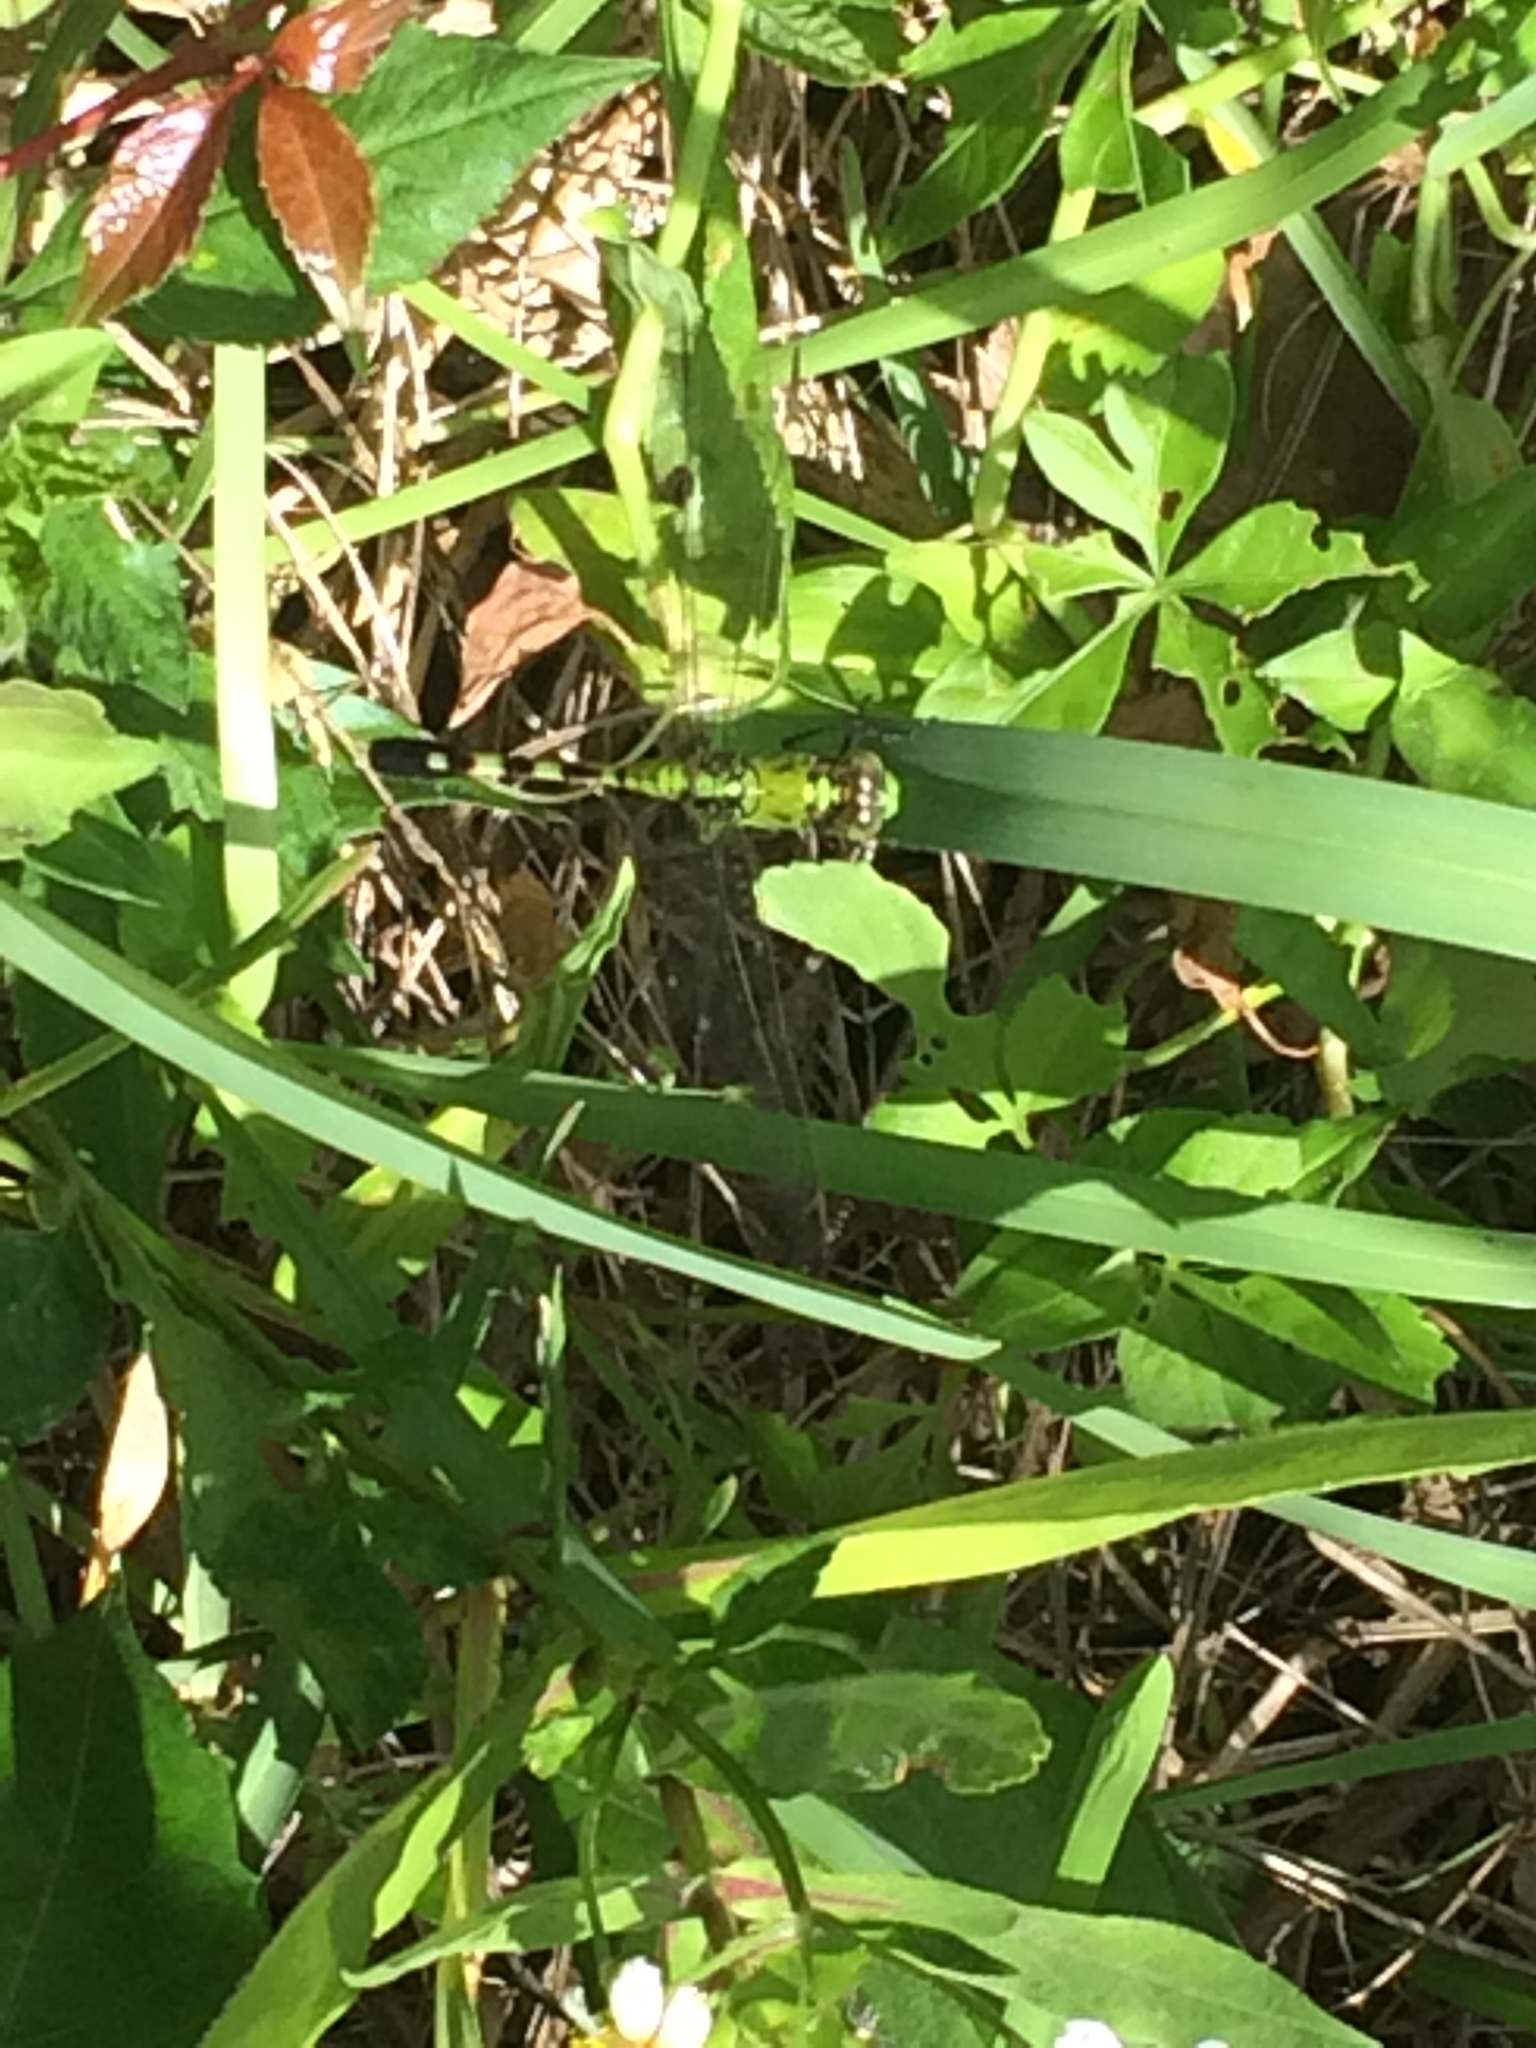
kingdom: Animalia
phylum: Arthropoda
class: Insecta
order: Odonata
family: Libellulidae
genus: Erythemis
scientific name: Erythemis simplicicollis
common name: Eastern pondhawk
